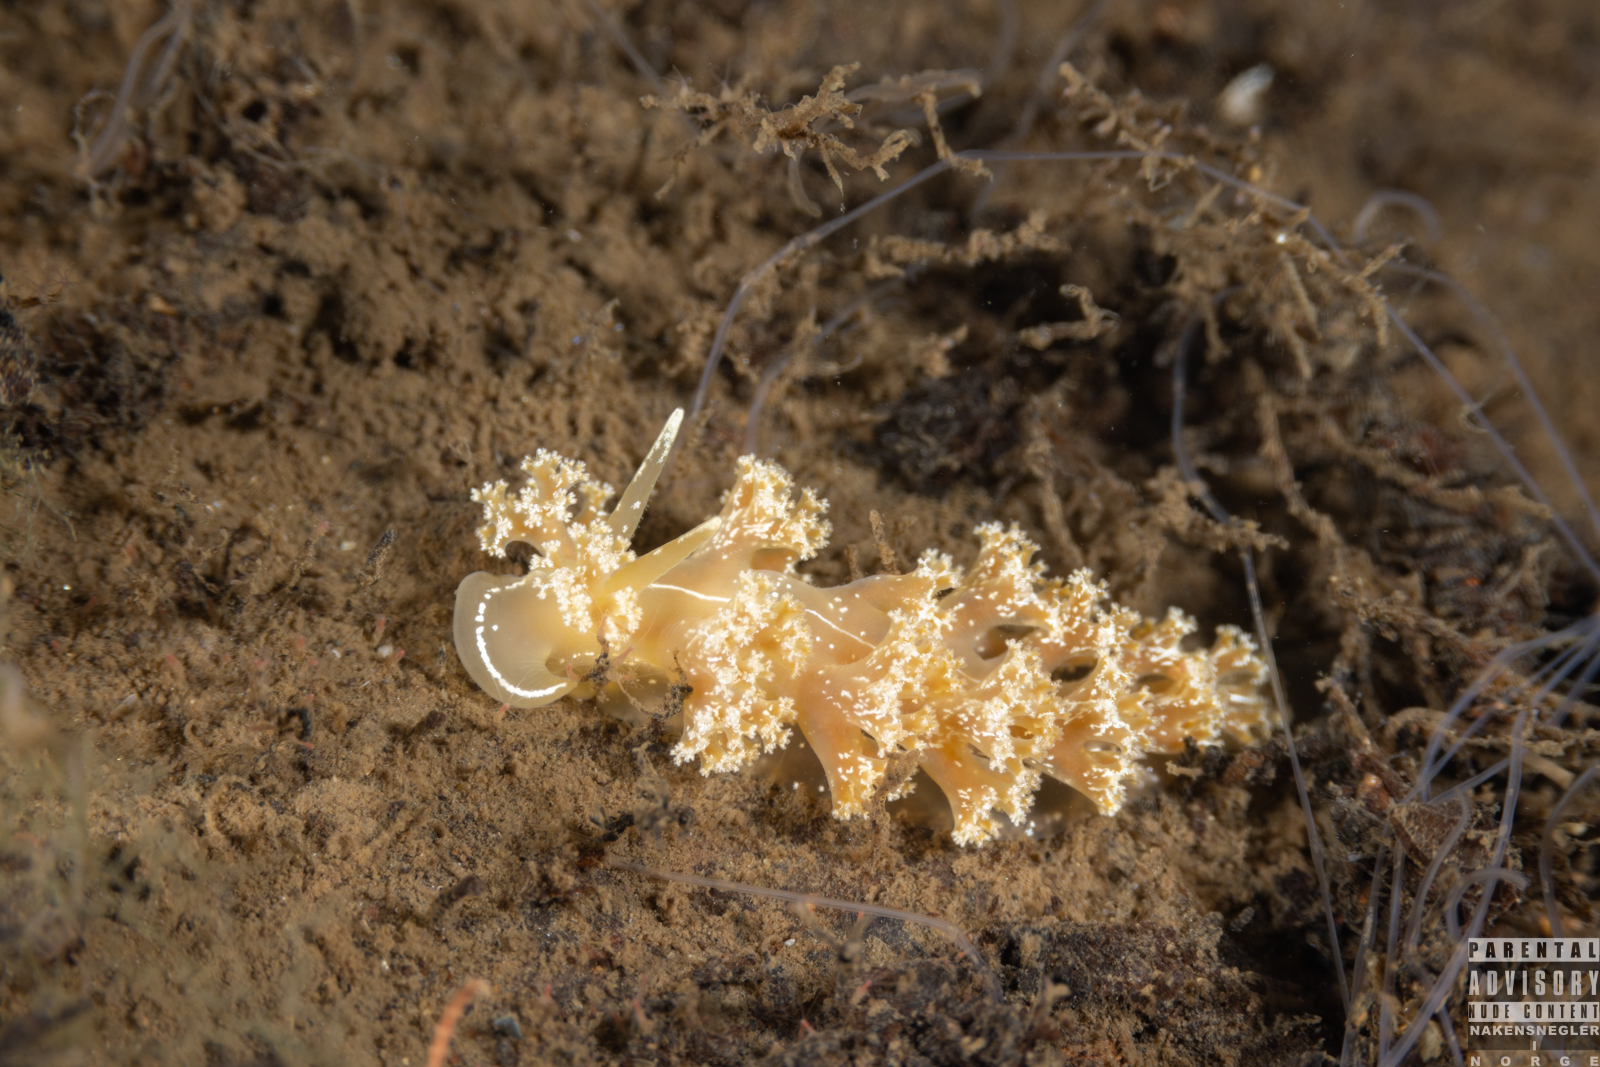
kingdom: Animalia
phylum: Mollusca
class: Gastropoda
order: Nudibranchia
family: Heroidae
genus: Hero
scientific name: Hero formosa
